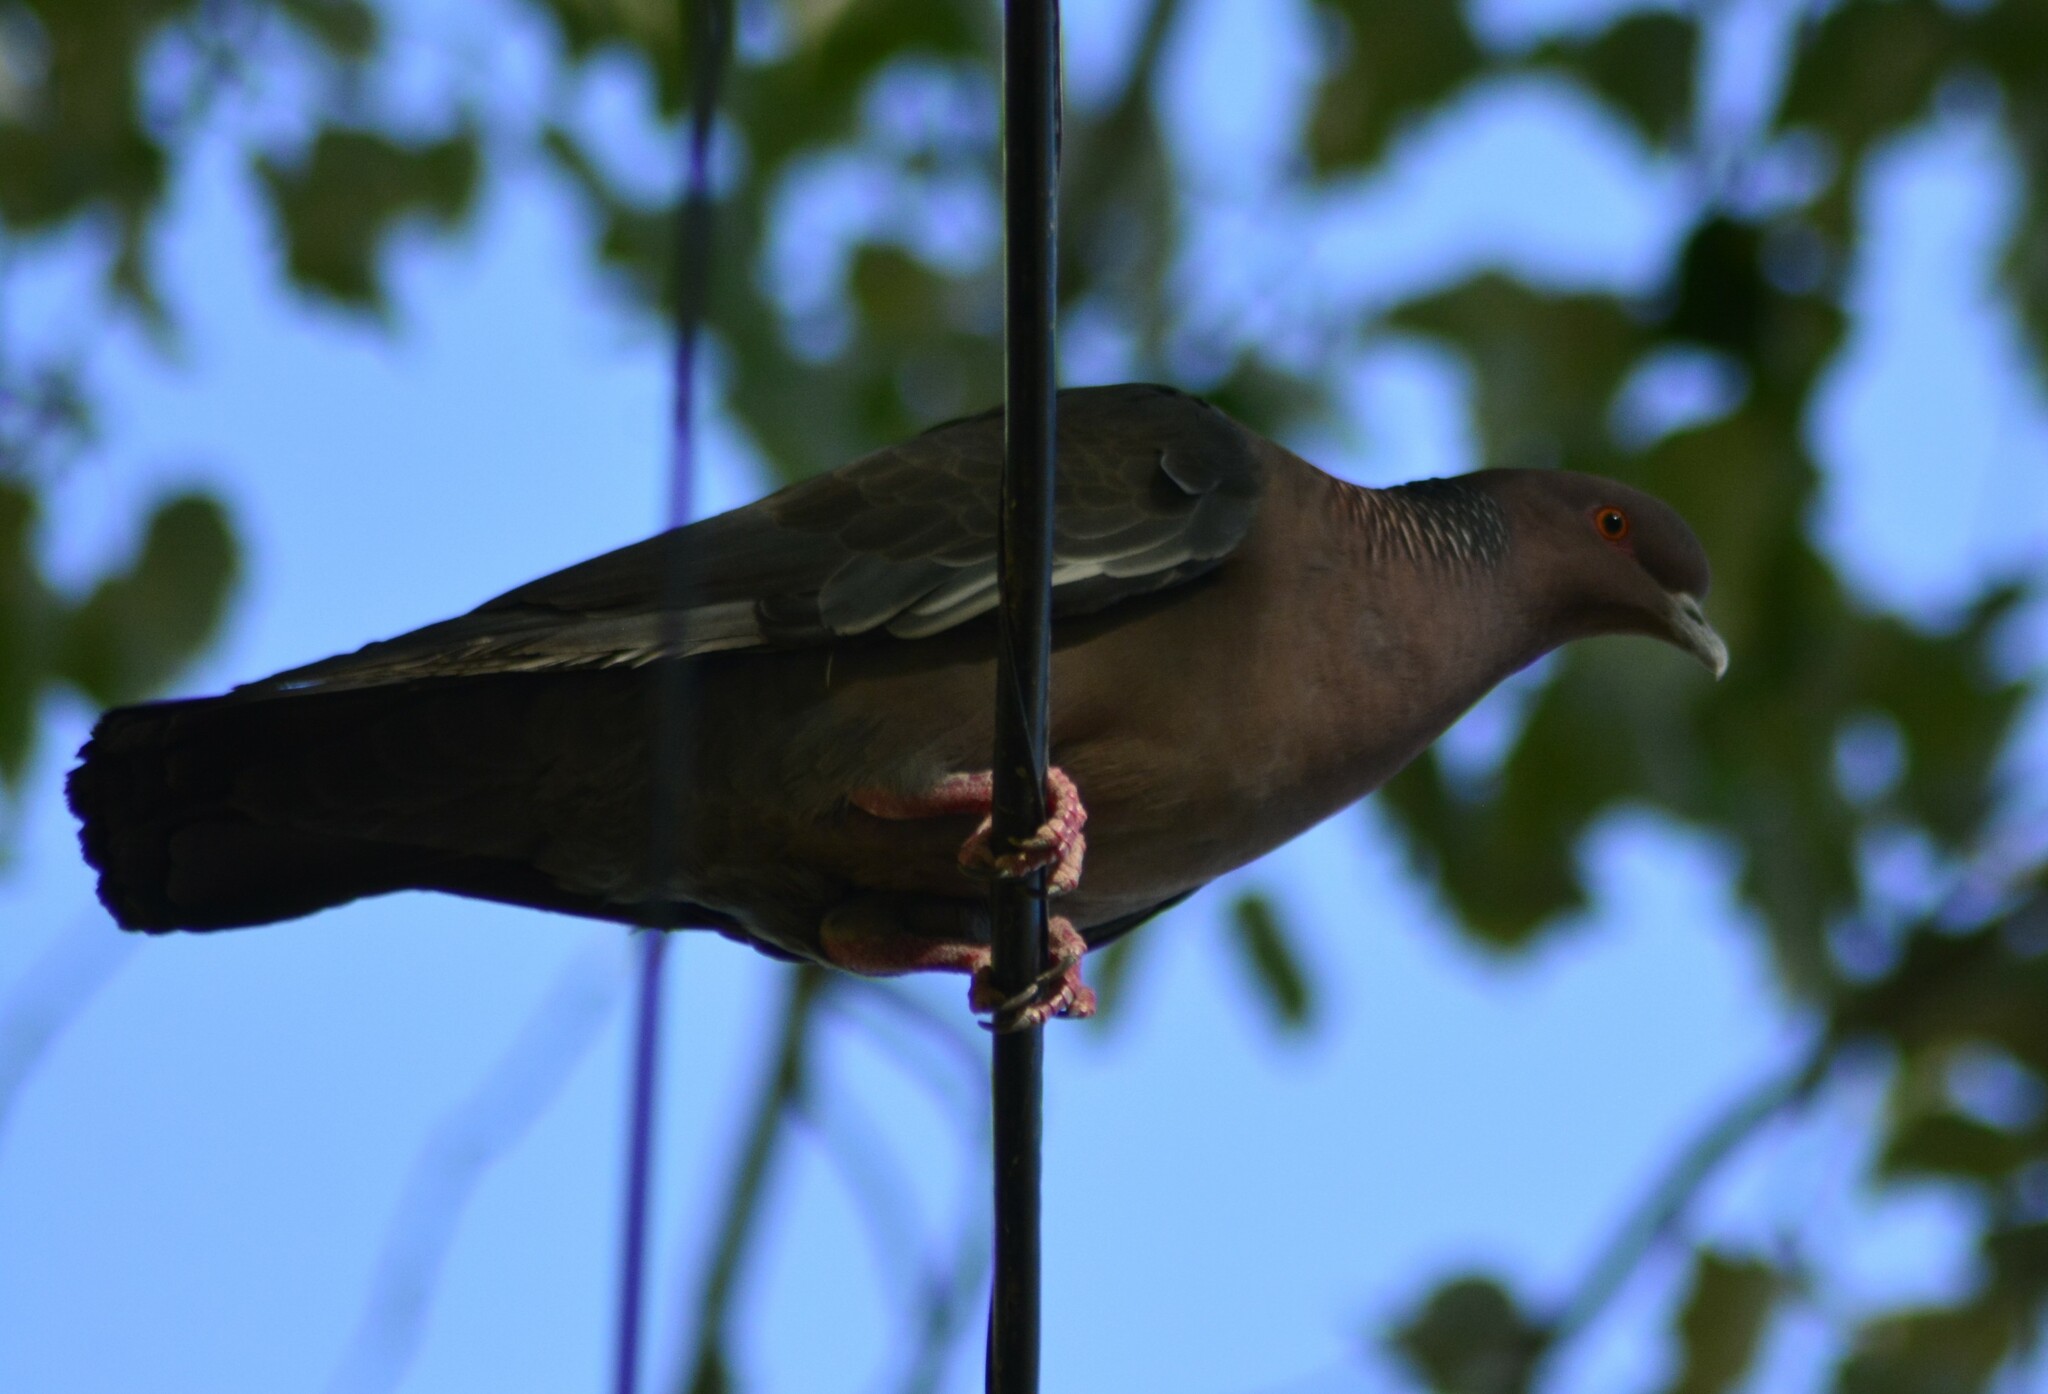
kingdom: Animalia
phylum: Chordata
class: Aves
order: Columbiformes
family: Columbidae
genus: Patagioenas
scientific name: Patagioenas picazuro
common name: Picazuro pigeon
